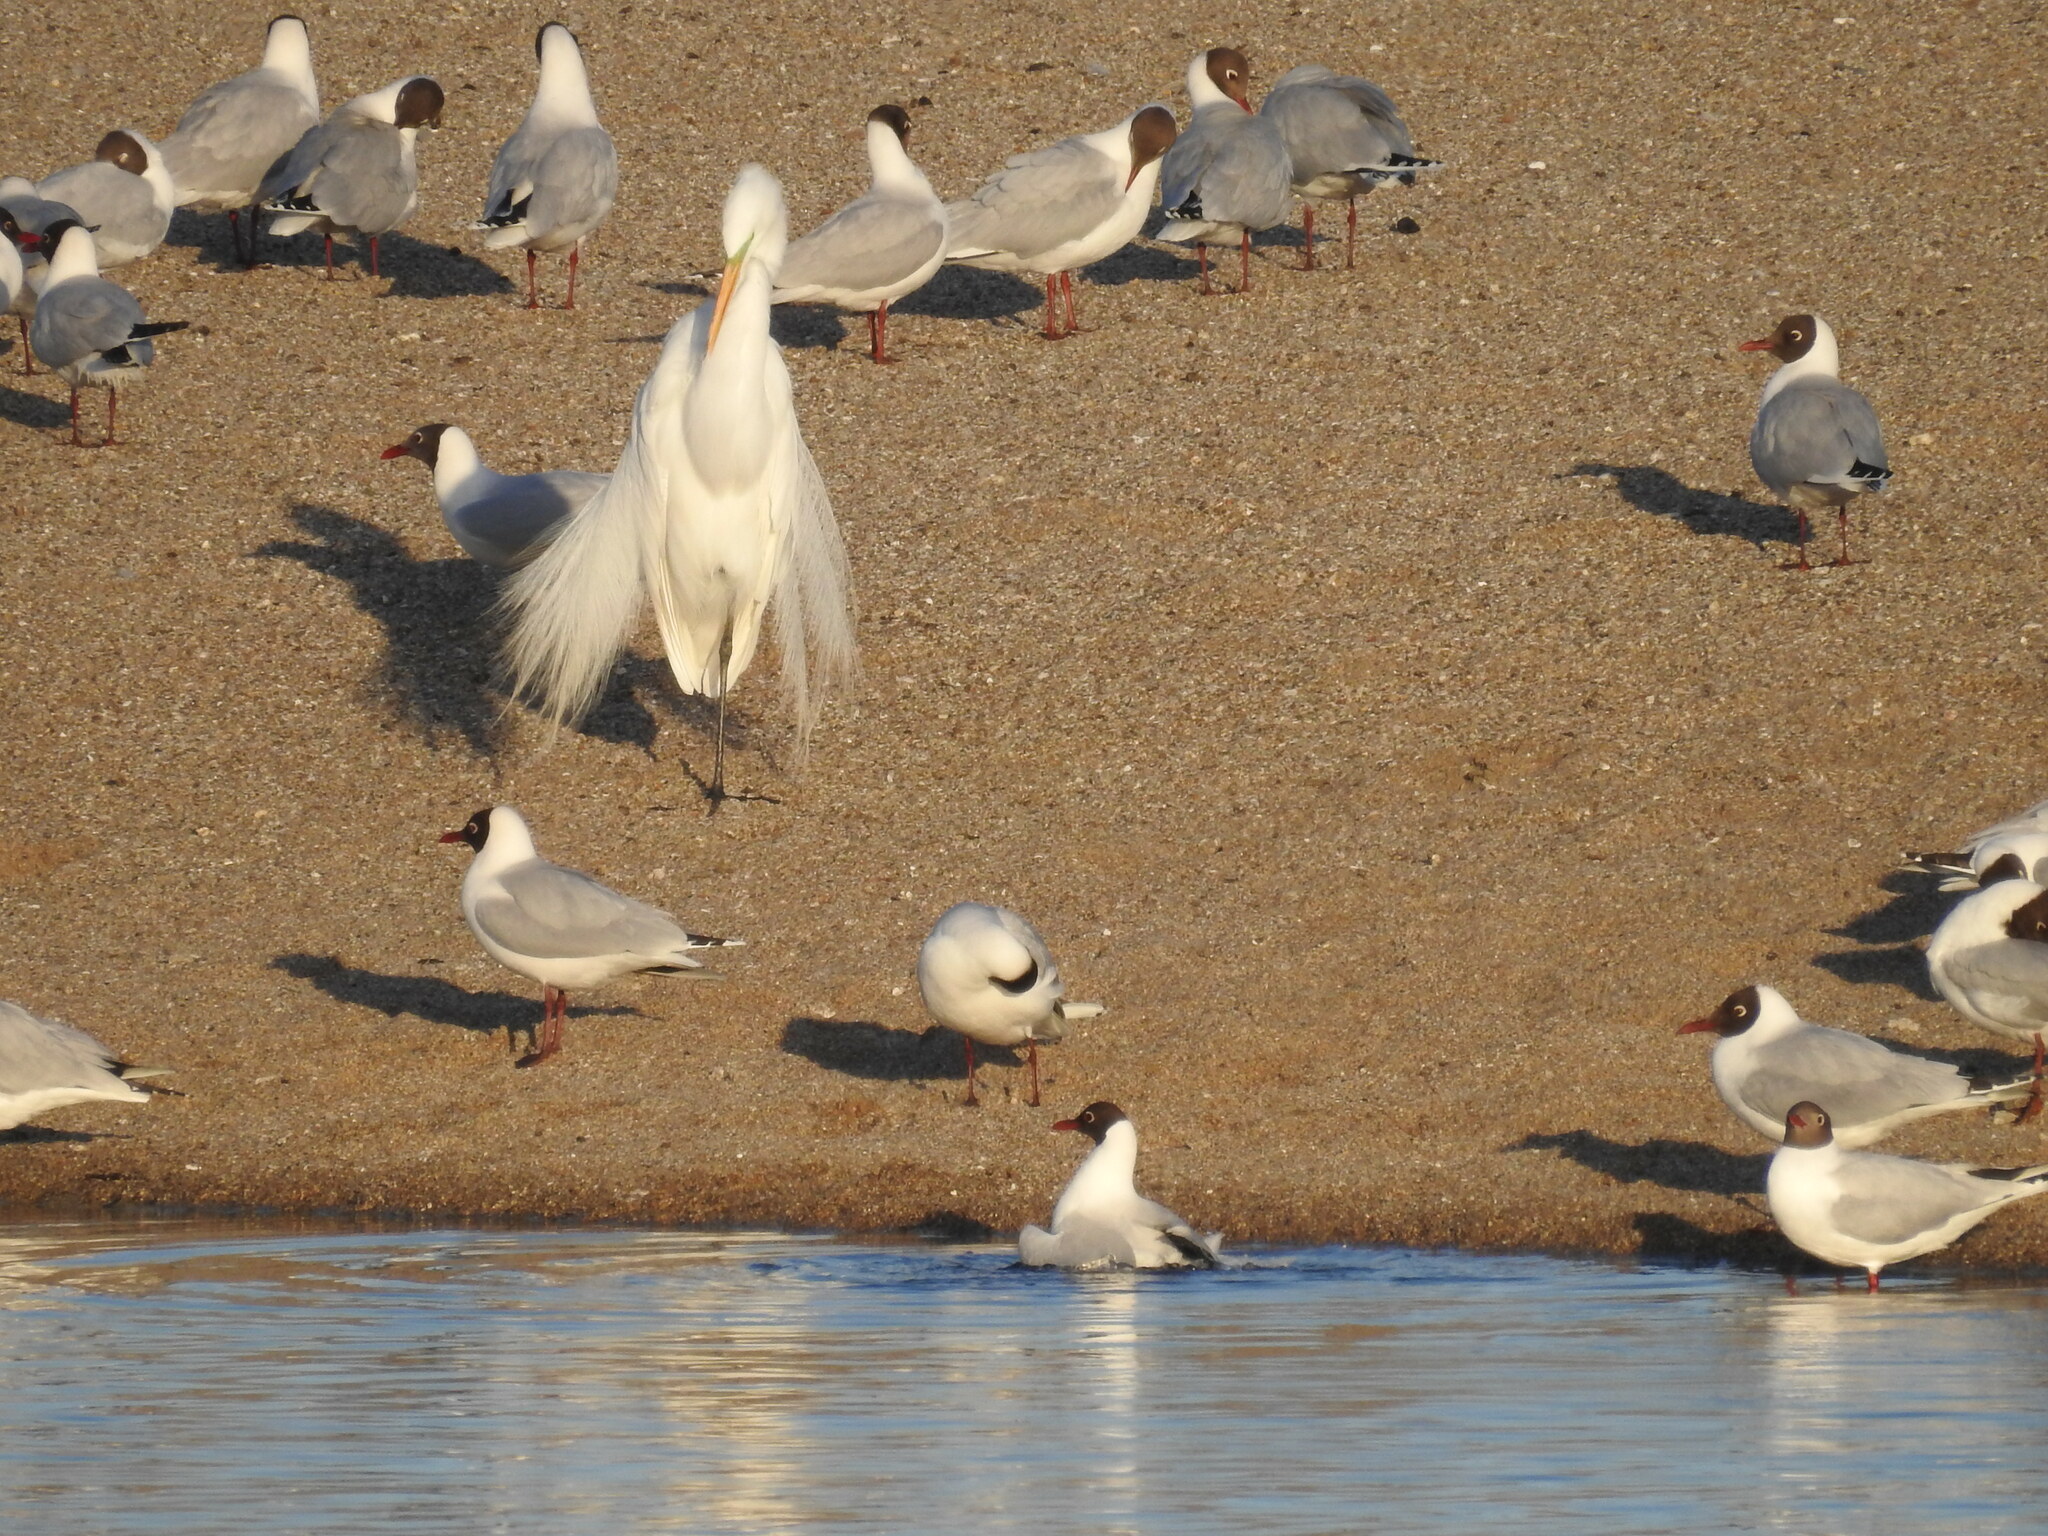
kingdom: Animalia
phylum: Chordata
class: Aves
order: Charadriiformes
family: Laridae
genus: Chroicocephalus
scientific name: Chroicocephalus maculipennis
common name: Brown-hooded gull
